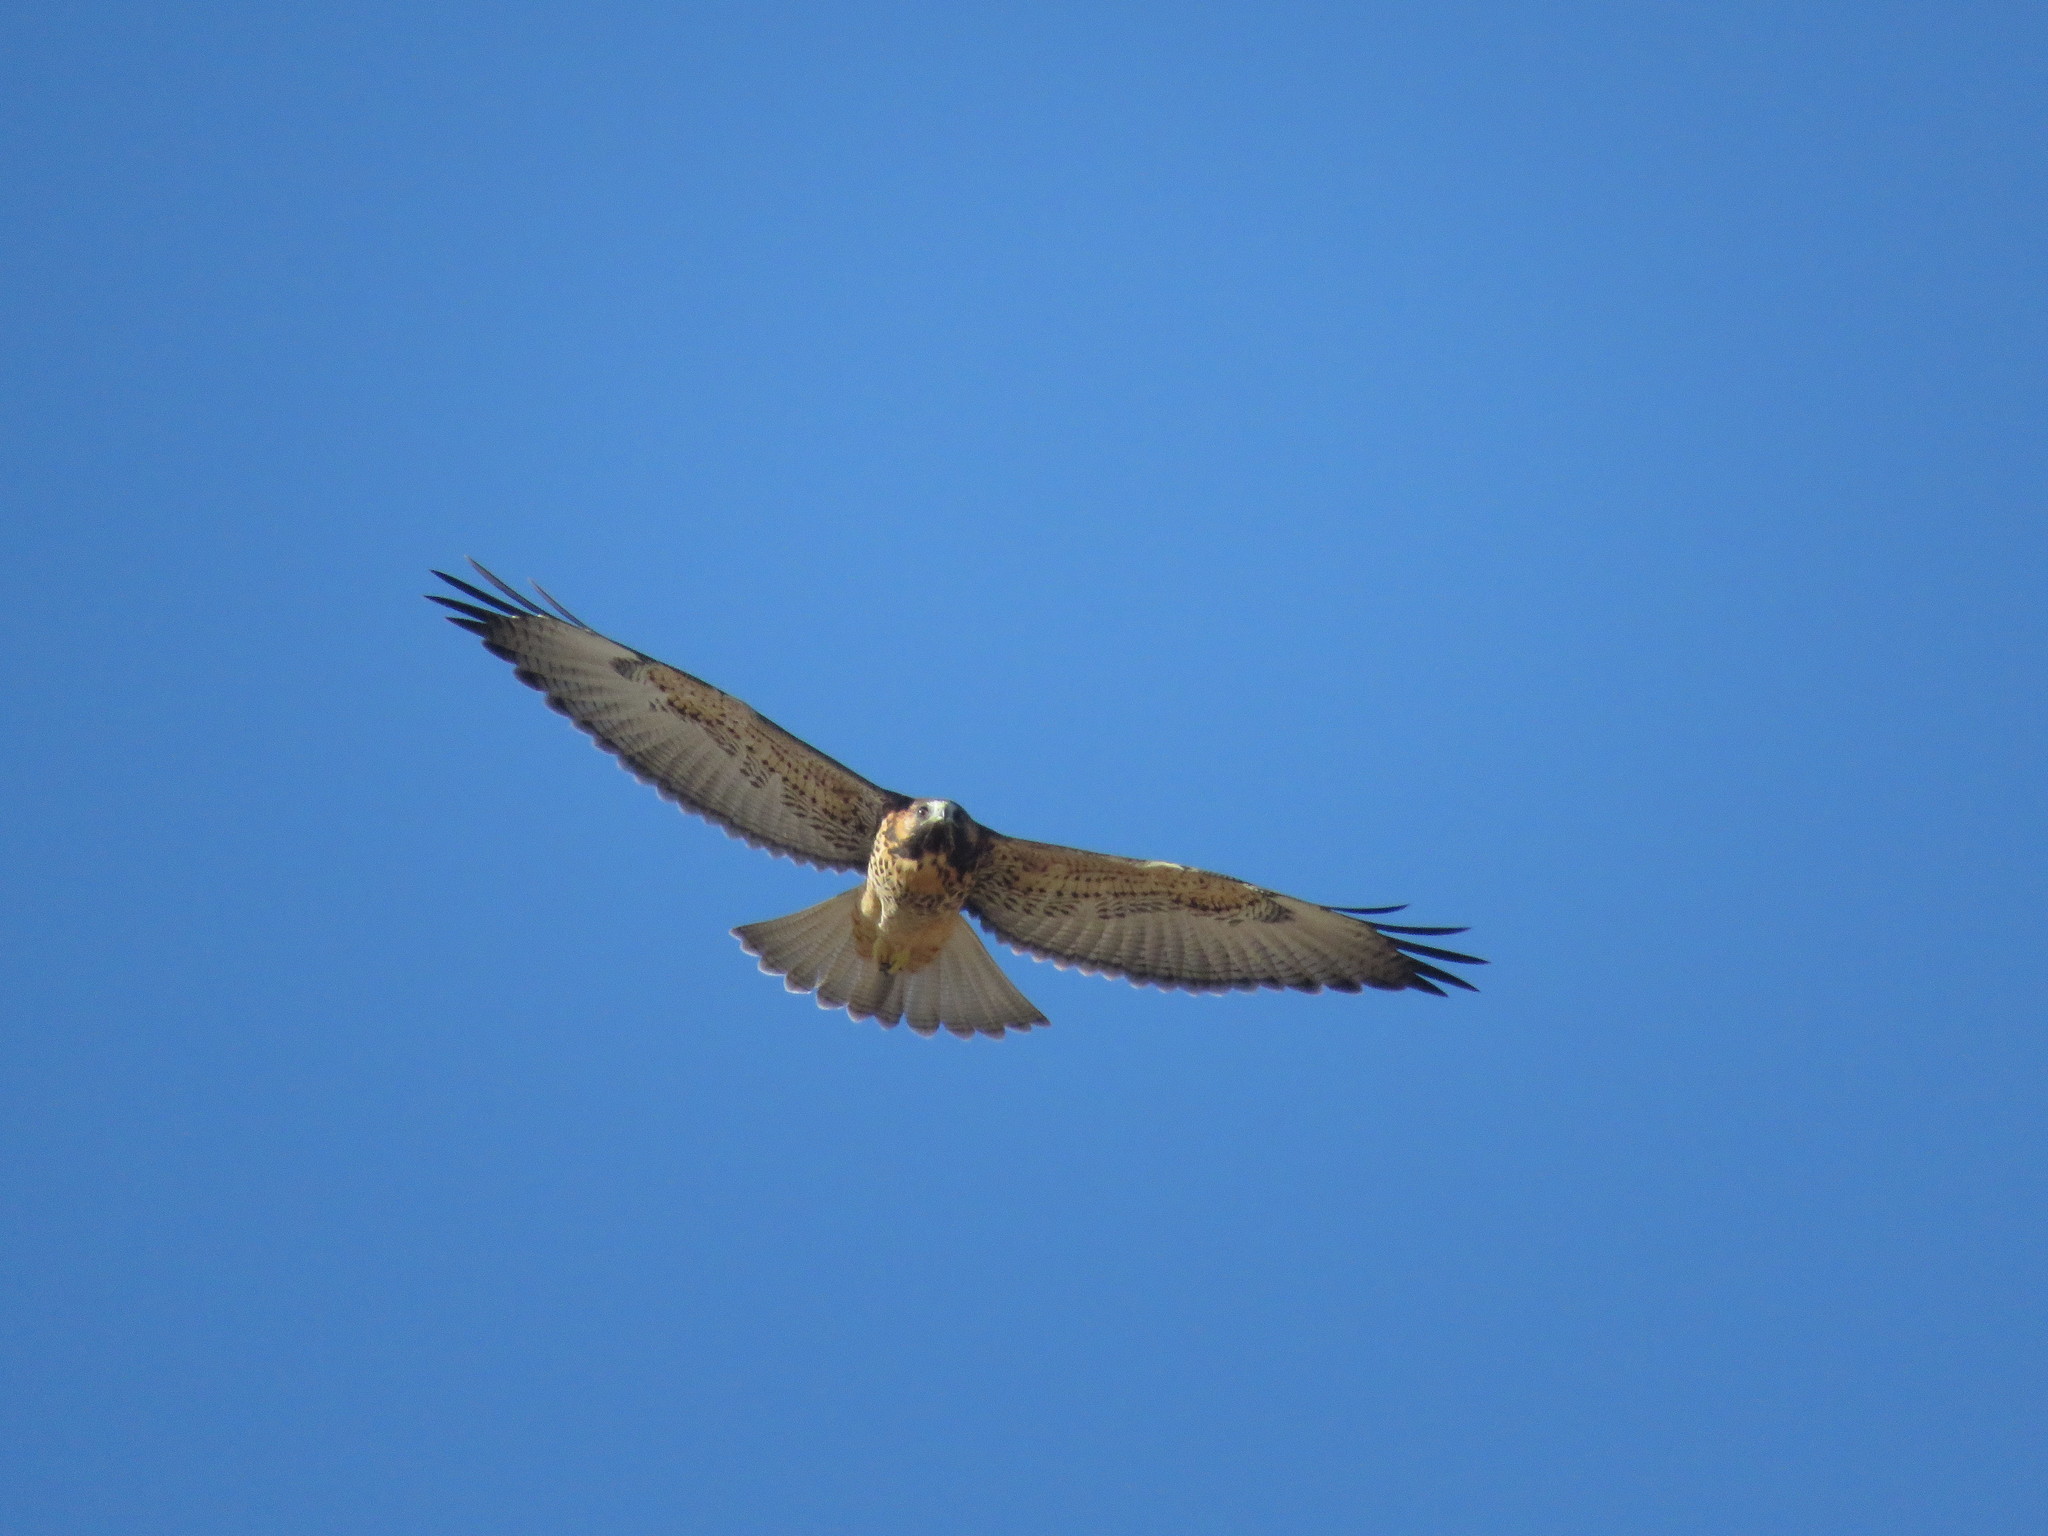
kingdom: Animalia
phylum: Chordata
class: Aves
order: Accipitriformes
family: Accipitridae
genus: Buteo
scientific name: Buteo polyosoma
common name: Variable hawk
